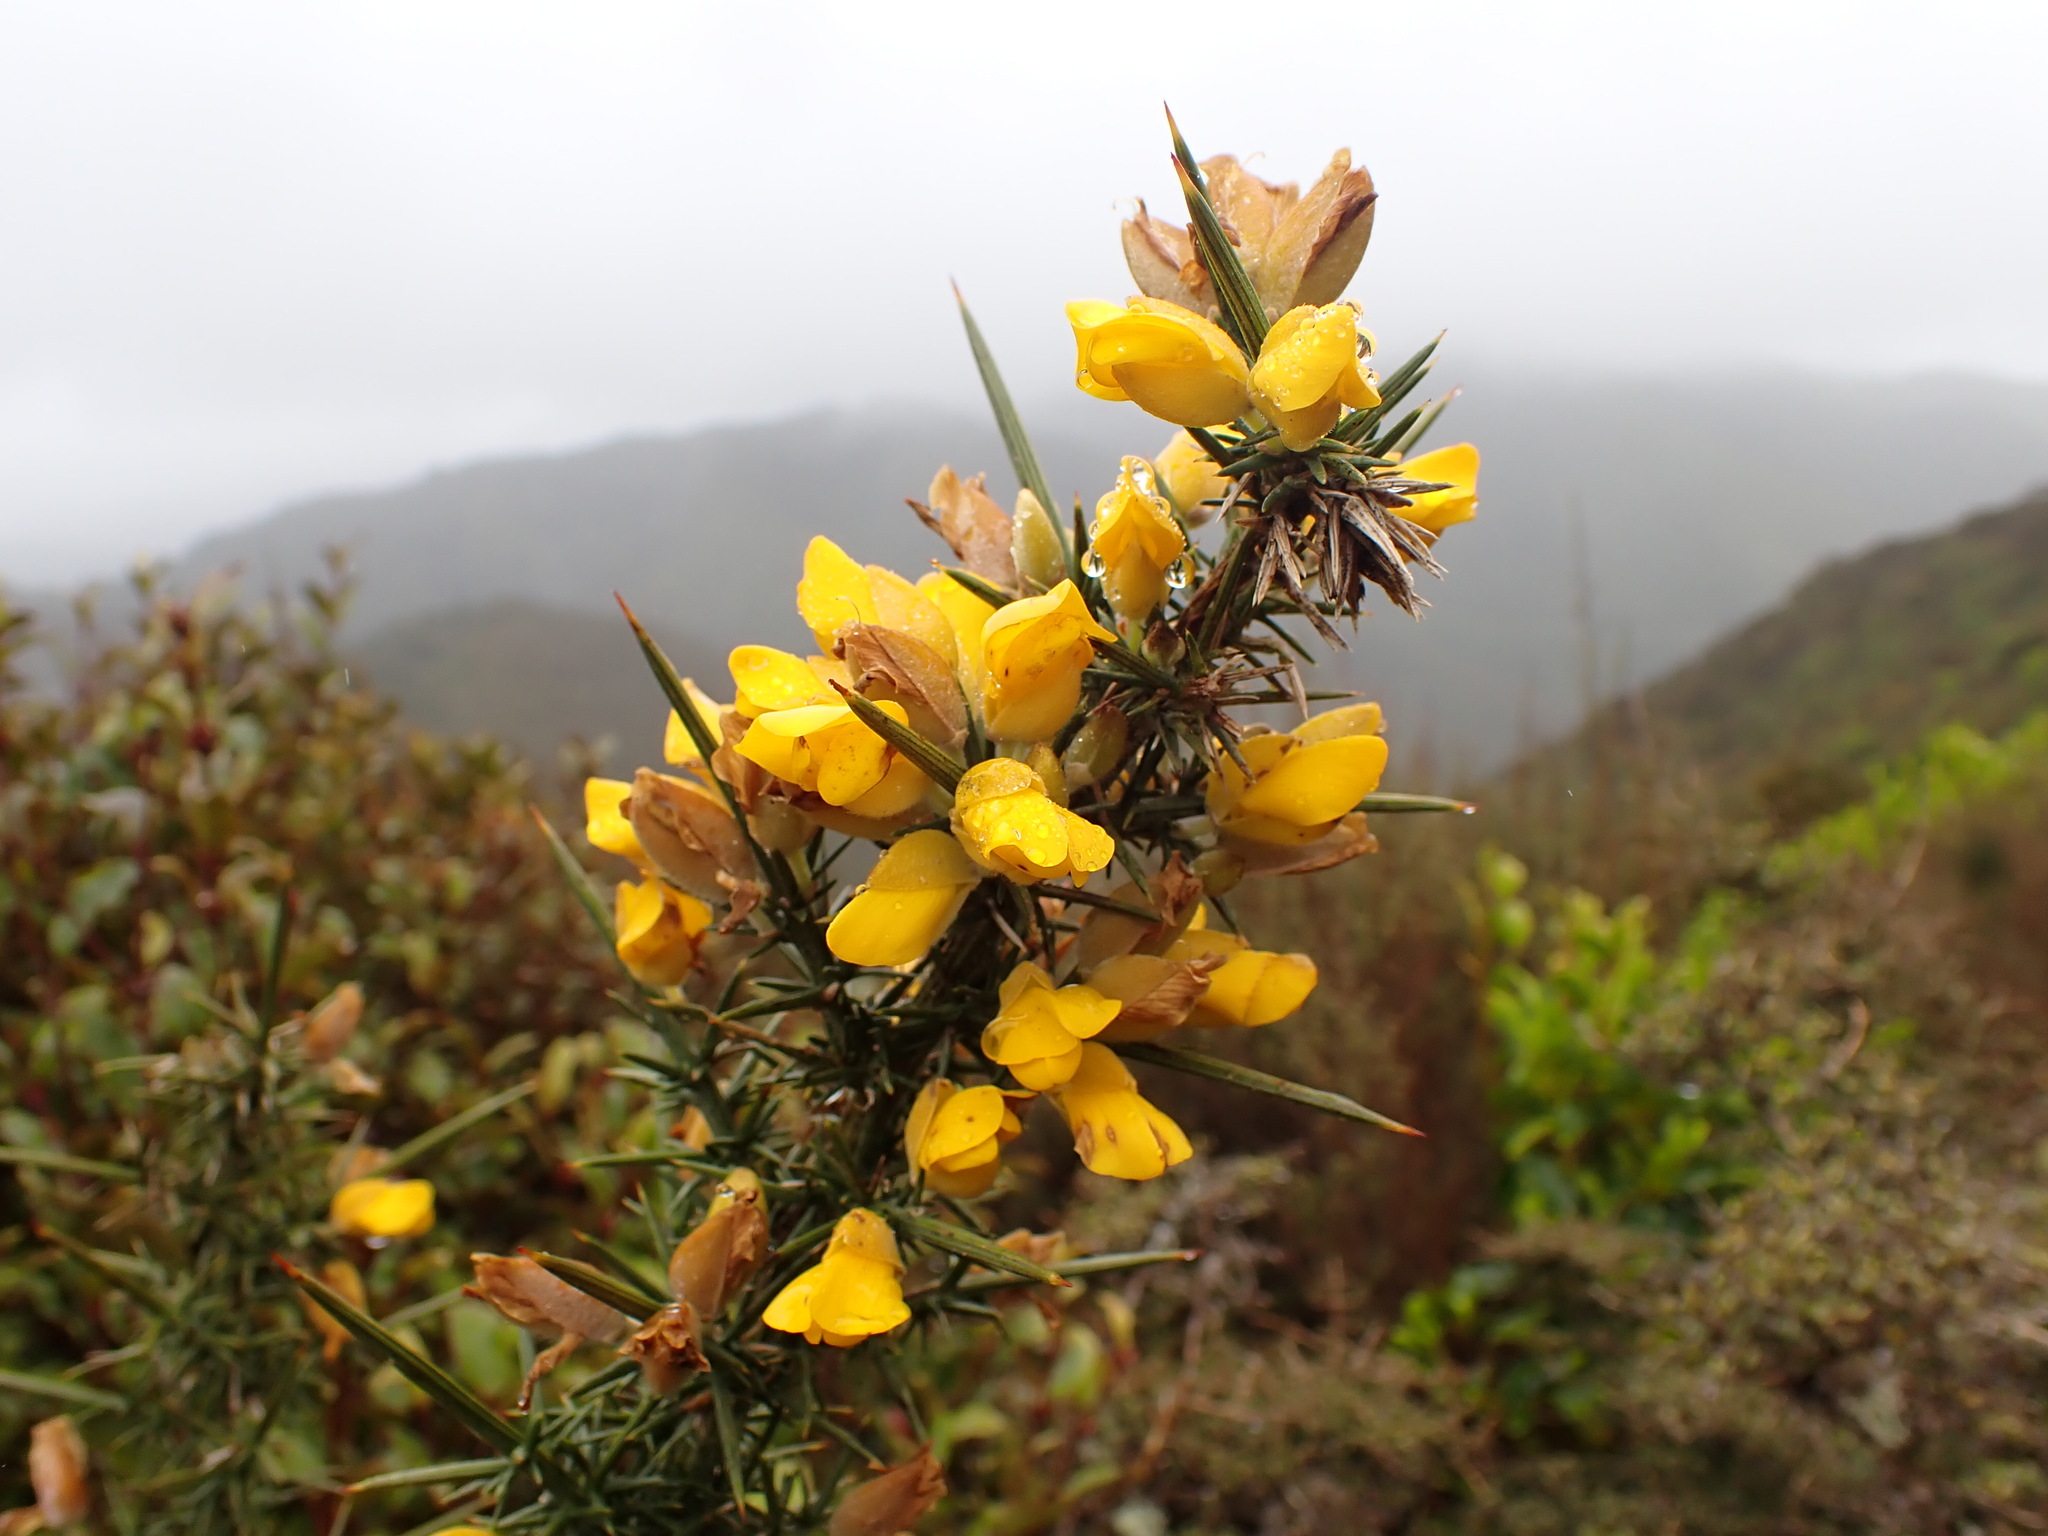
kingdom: Plantae
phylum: Tracheophyta
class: Magnoliopsida
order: Fabales
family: Fabaceae
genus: Ulex
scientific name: Ulex europaeus
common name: Common gorse
